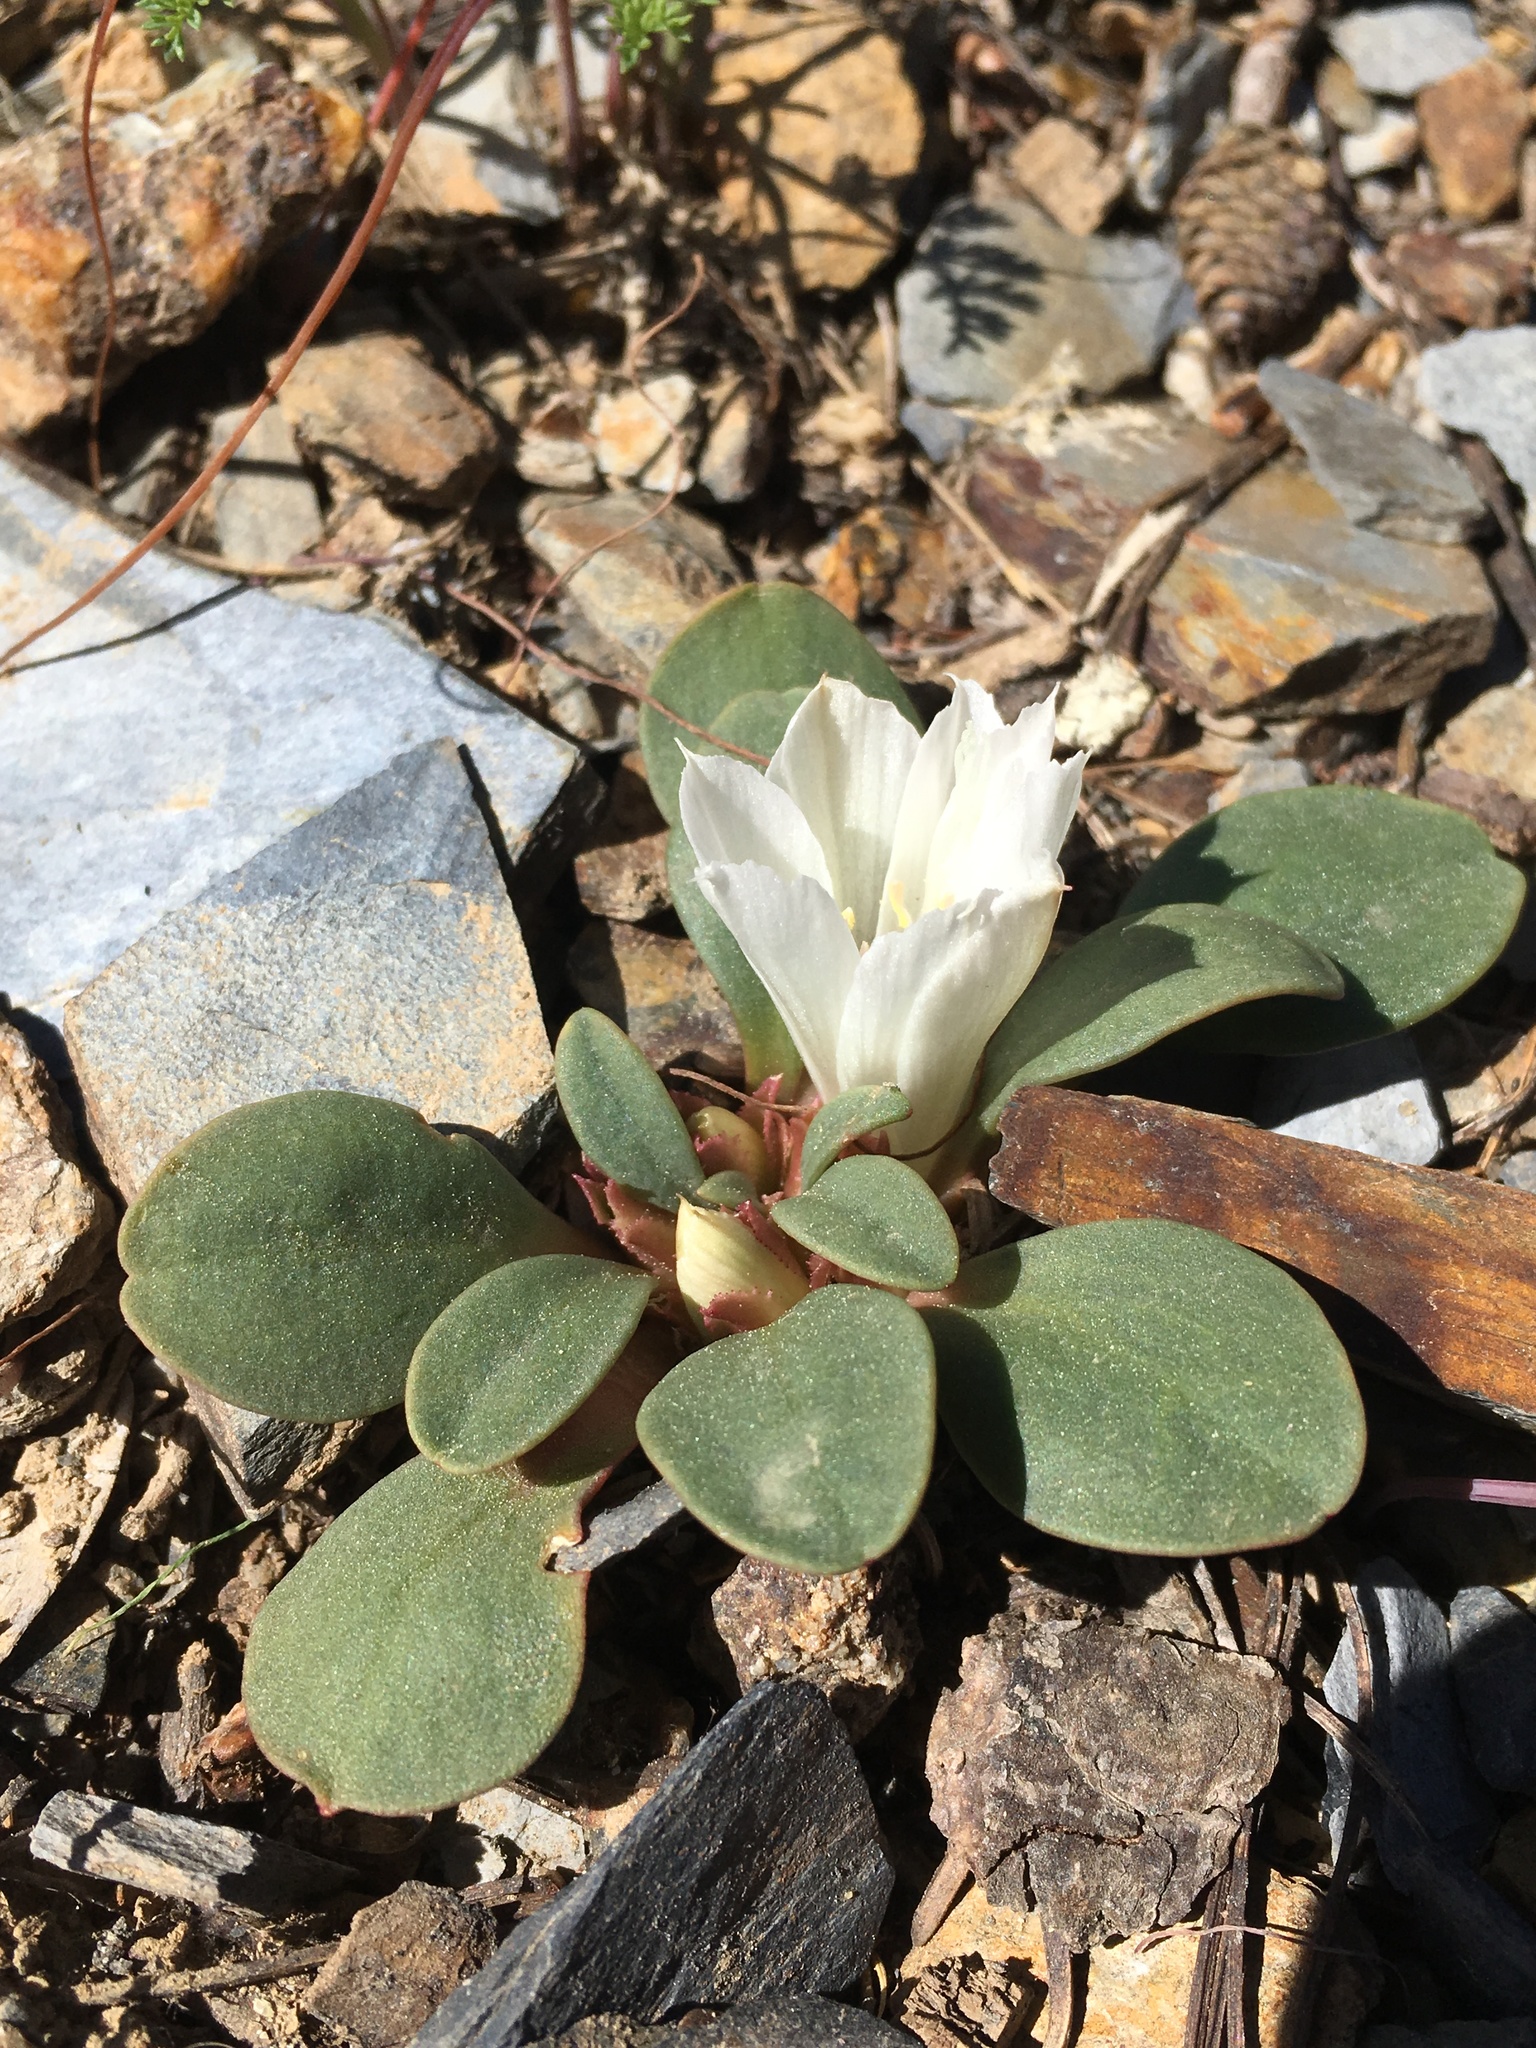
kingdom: Plantae
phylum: Tracheophyta
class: Magnoliopsida
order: Caryophyllales
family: Montiaceae
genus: Lewisia
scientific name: Lewisia kelloggii
